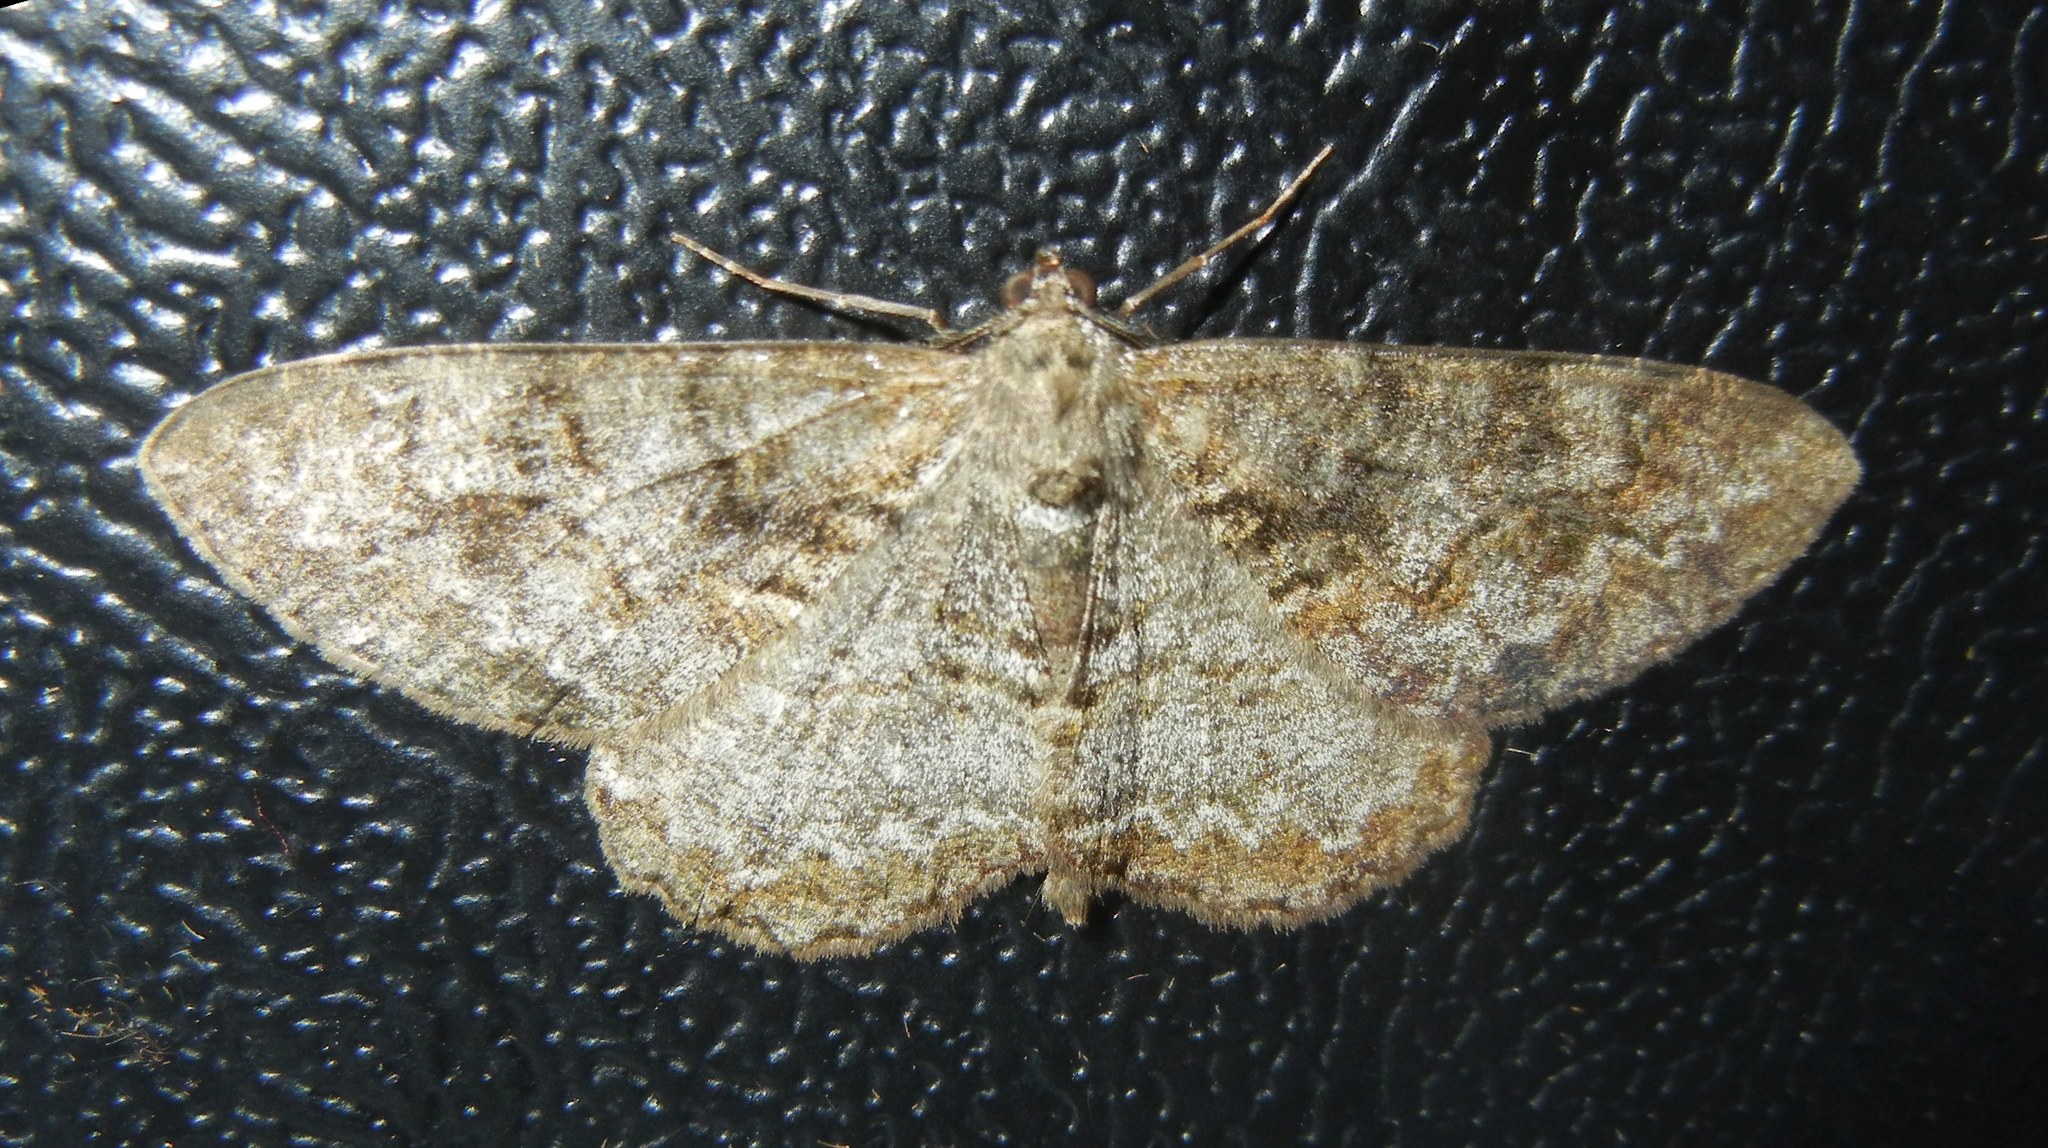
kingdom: Animalia
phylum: Arthropoda
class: Insecta
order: Lepidoptera
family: Geometridae
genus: Alcis
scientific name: Alcis repandata
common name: Mottled beauty
